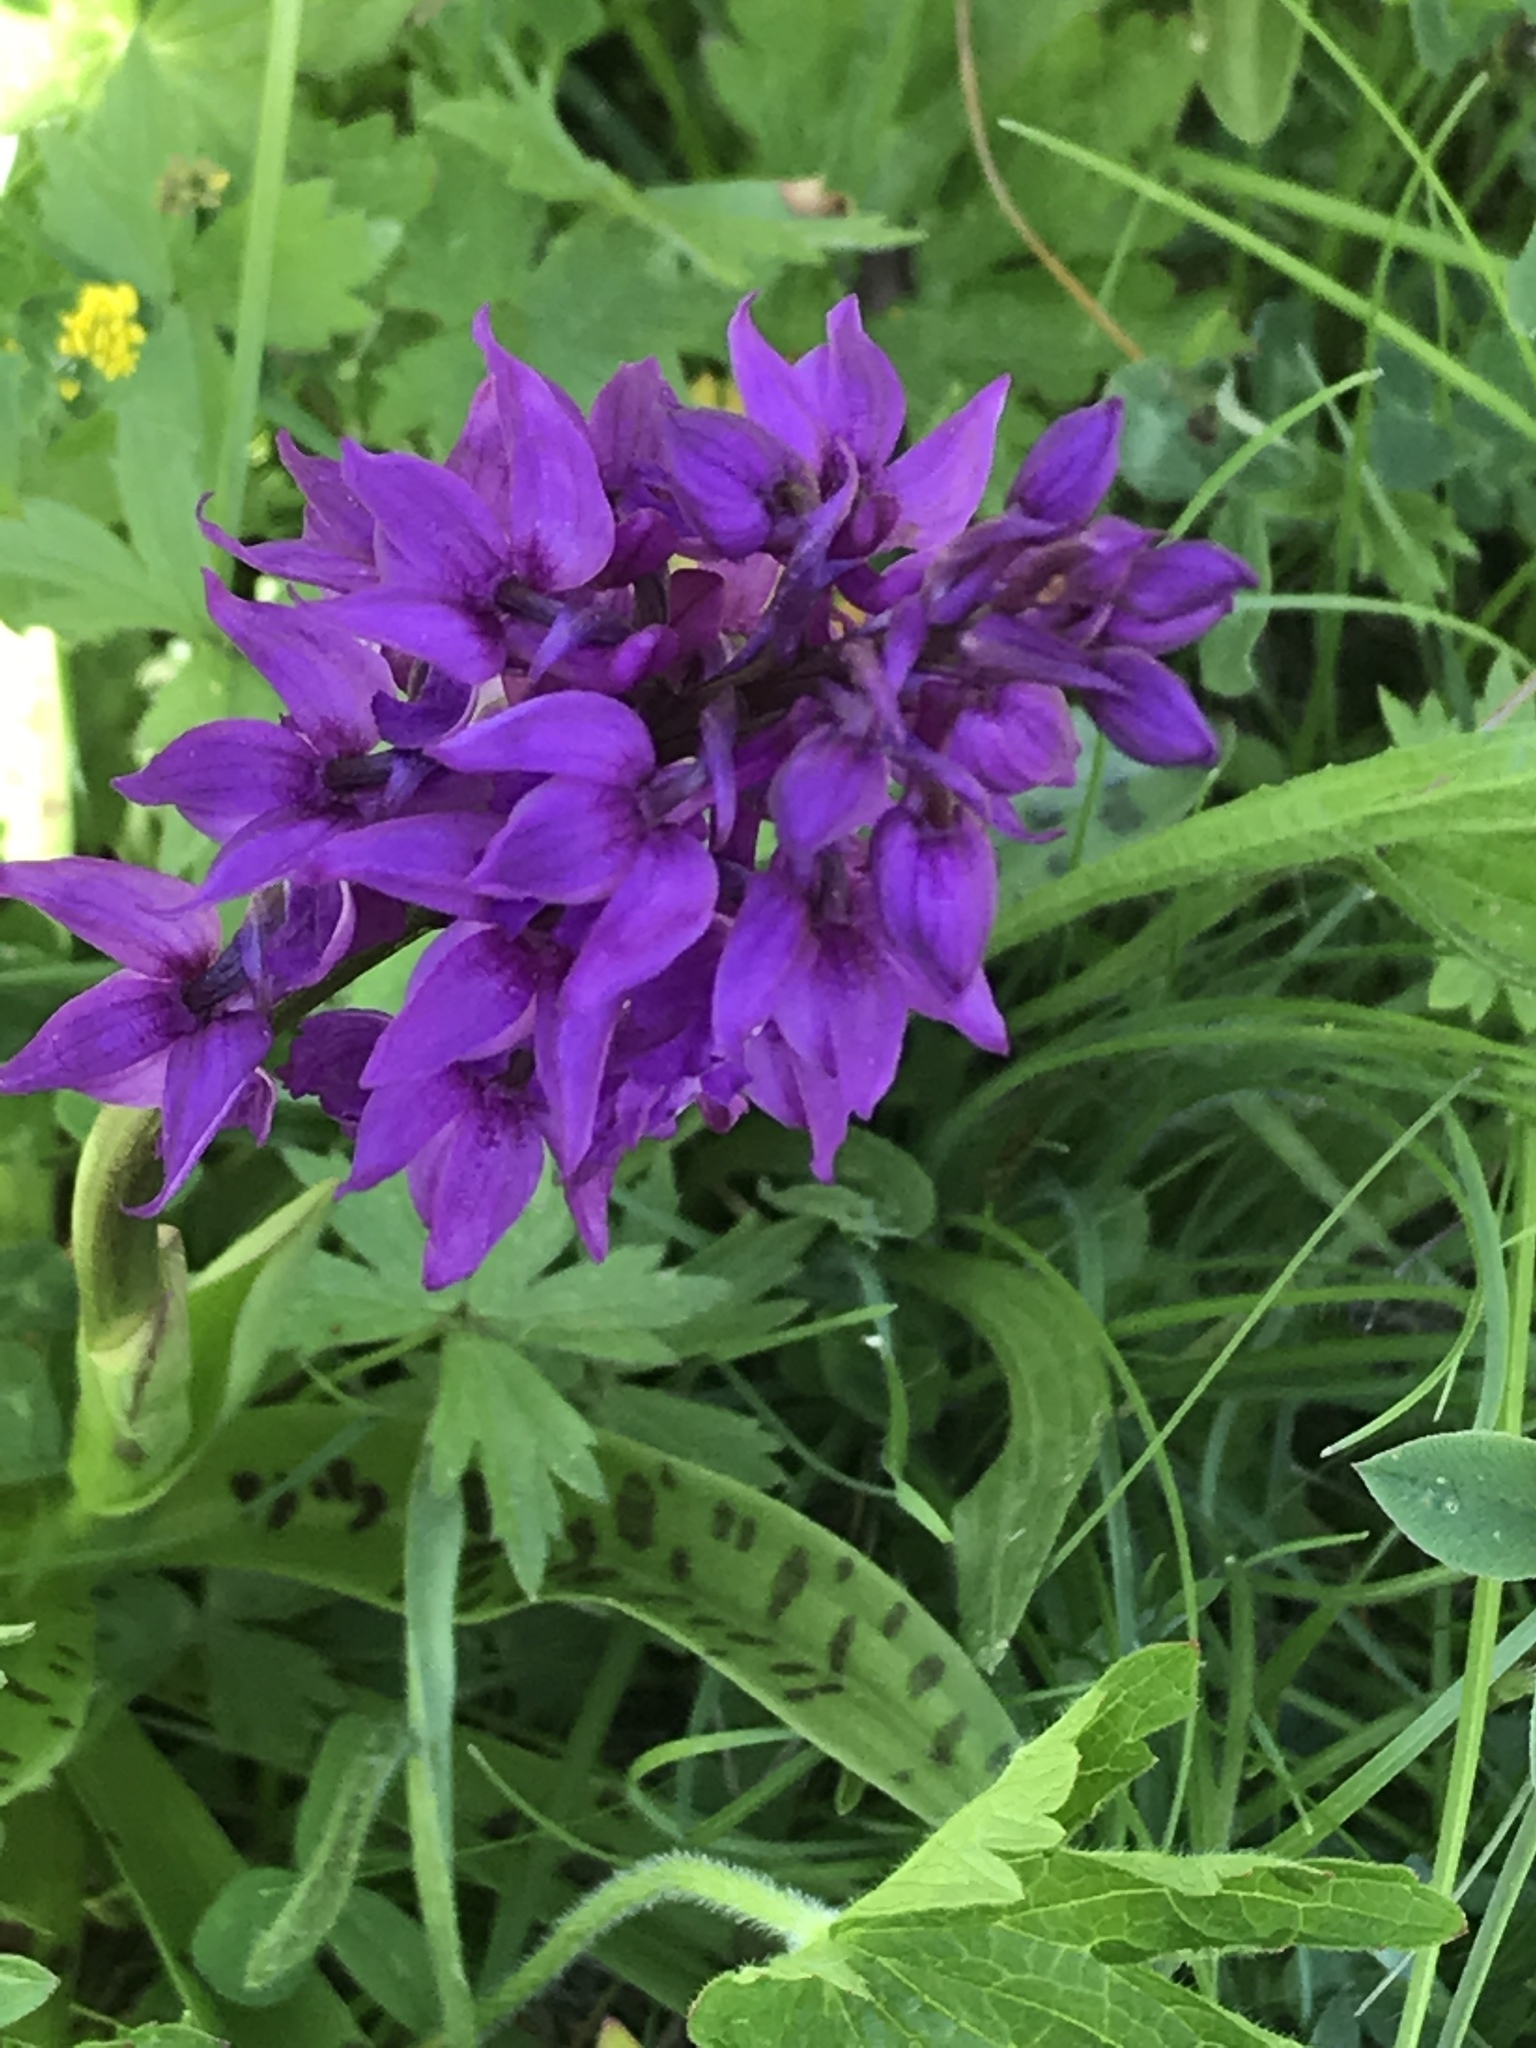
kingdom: Plantae
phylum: Tracheophyta
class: Liliopsida
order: Asparagales
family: Orchidaceae
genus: Orchis
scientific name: Orchis mascula
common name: Early-purple orchid
